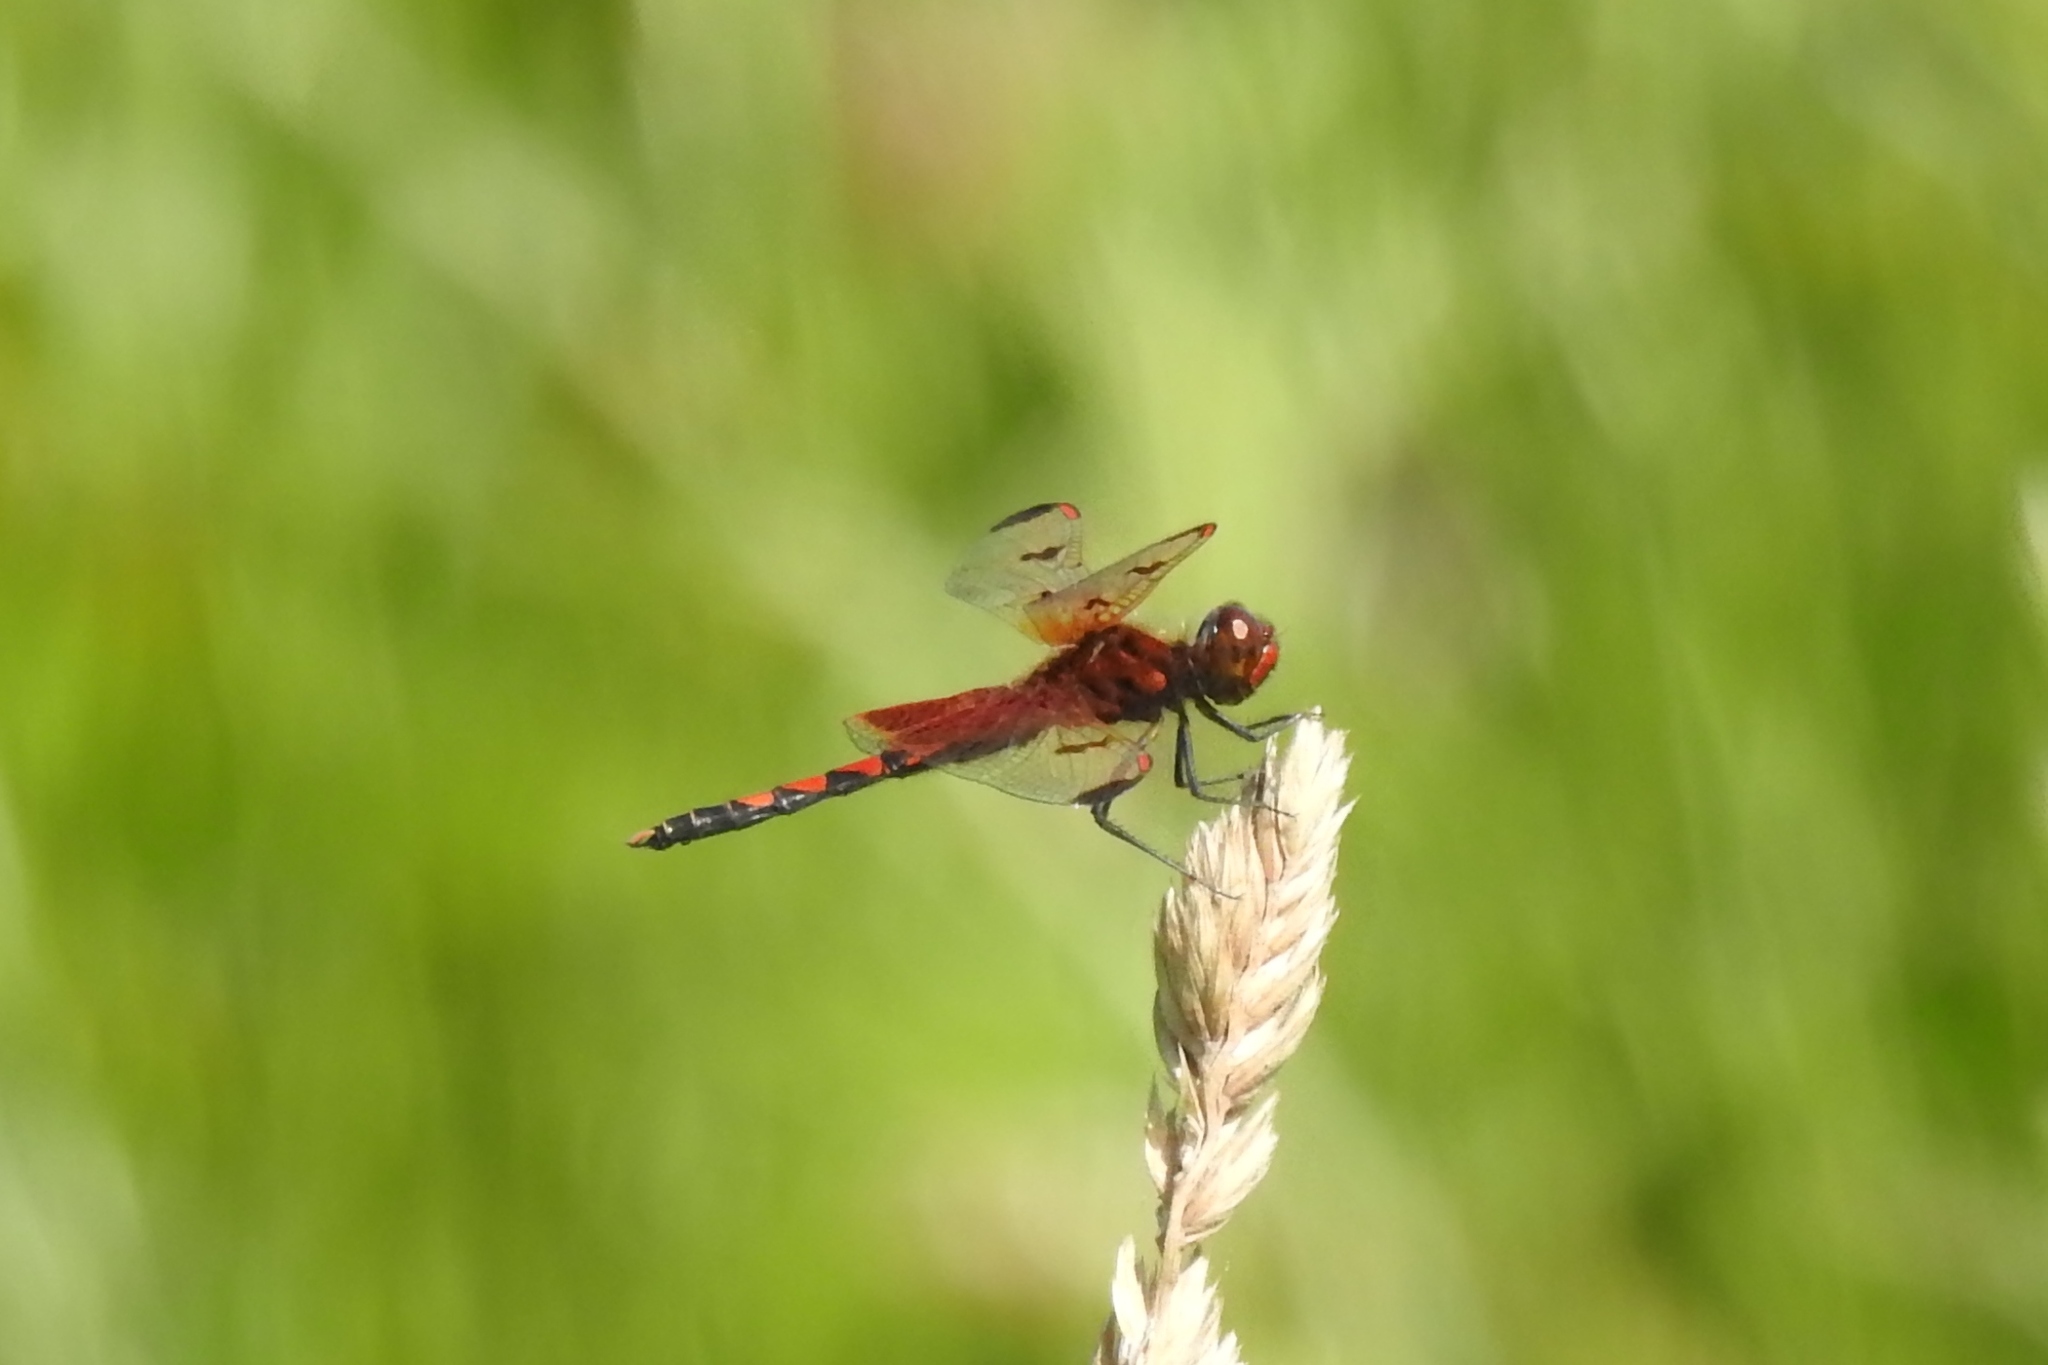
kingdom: Animalia
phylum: Arthropoda
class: Insecta
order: Odonata
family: Libellulidae
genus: Celithemis
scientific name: Celithemis elisa
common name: Calico pennant
